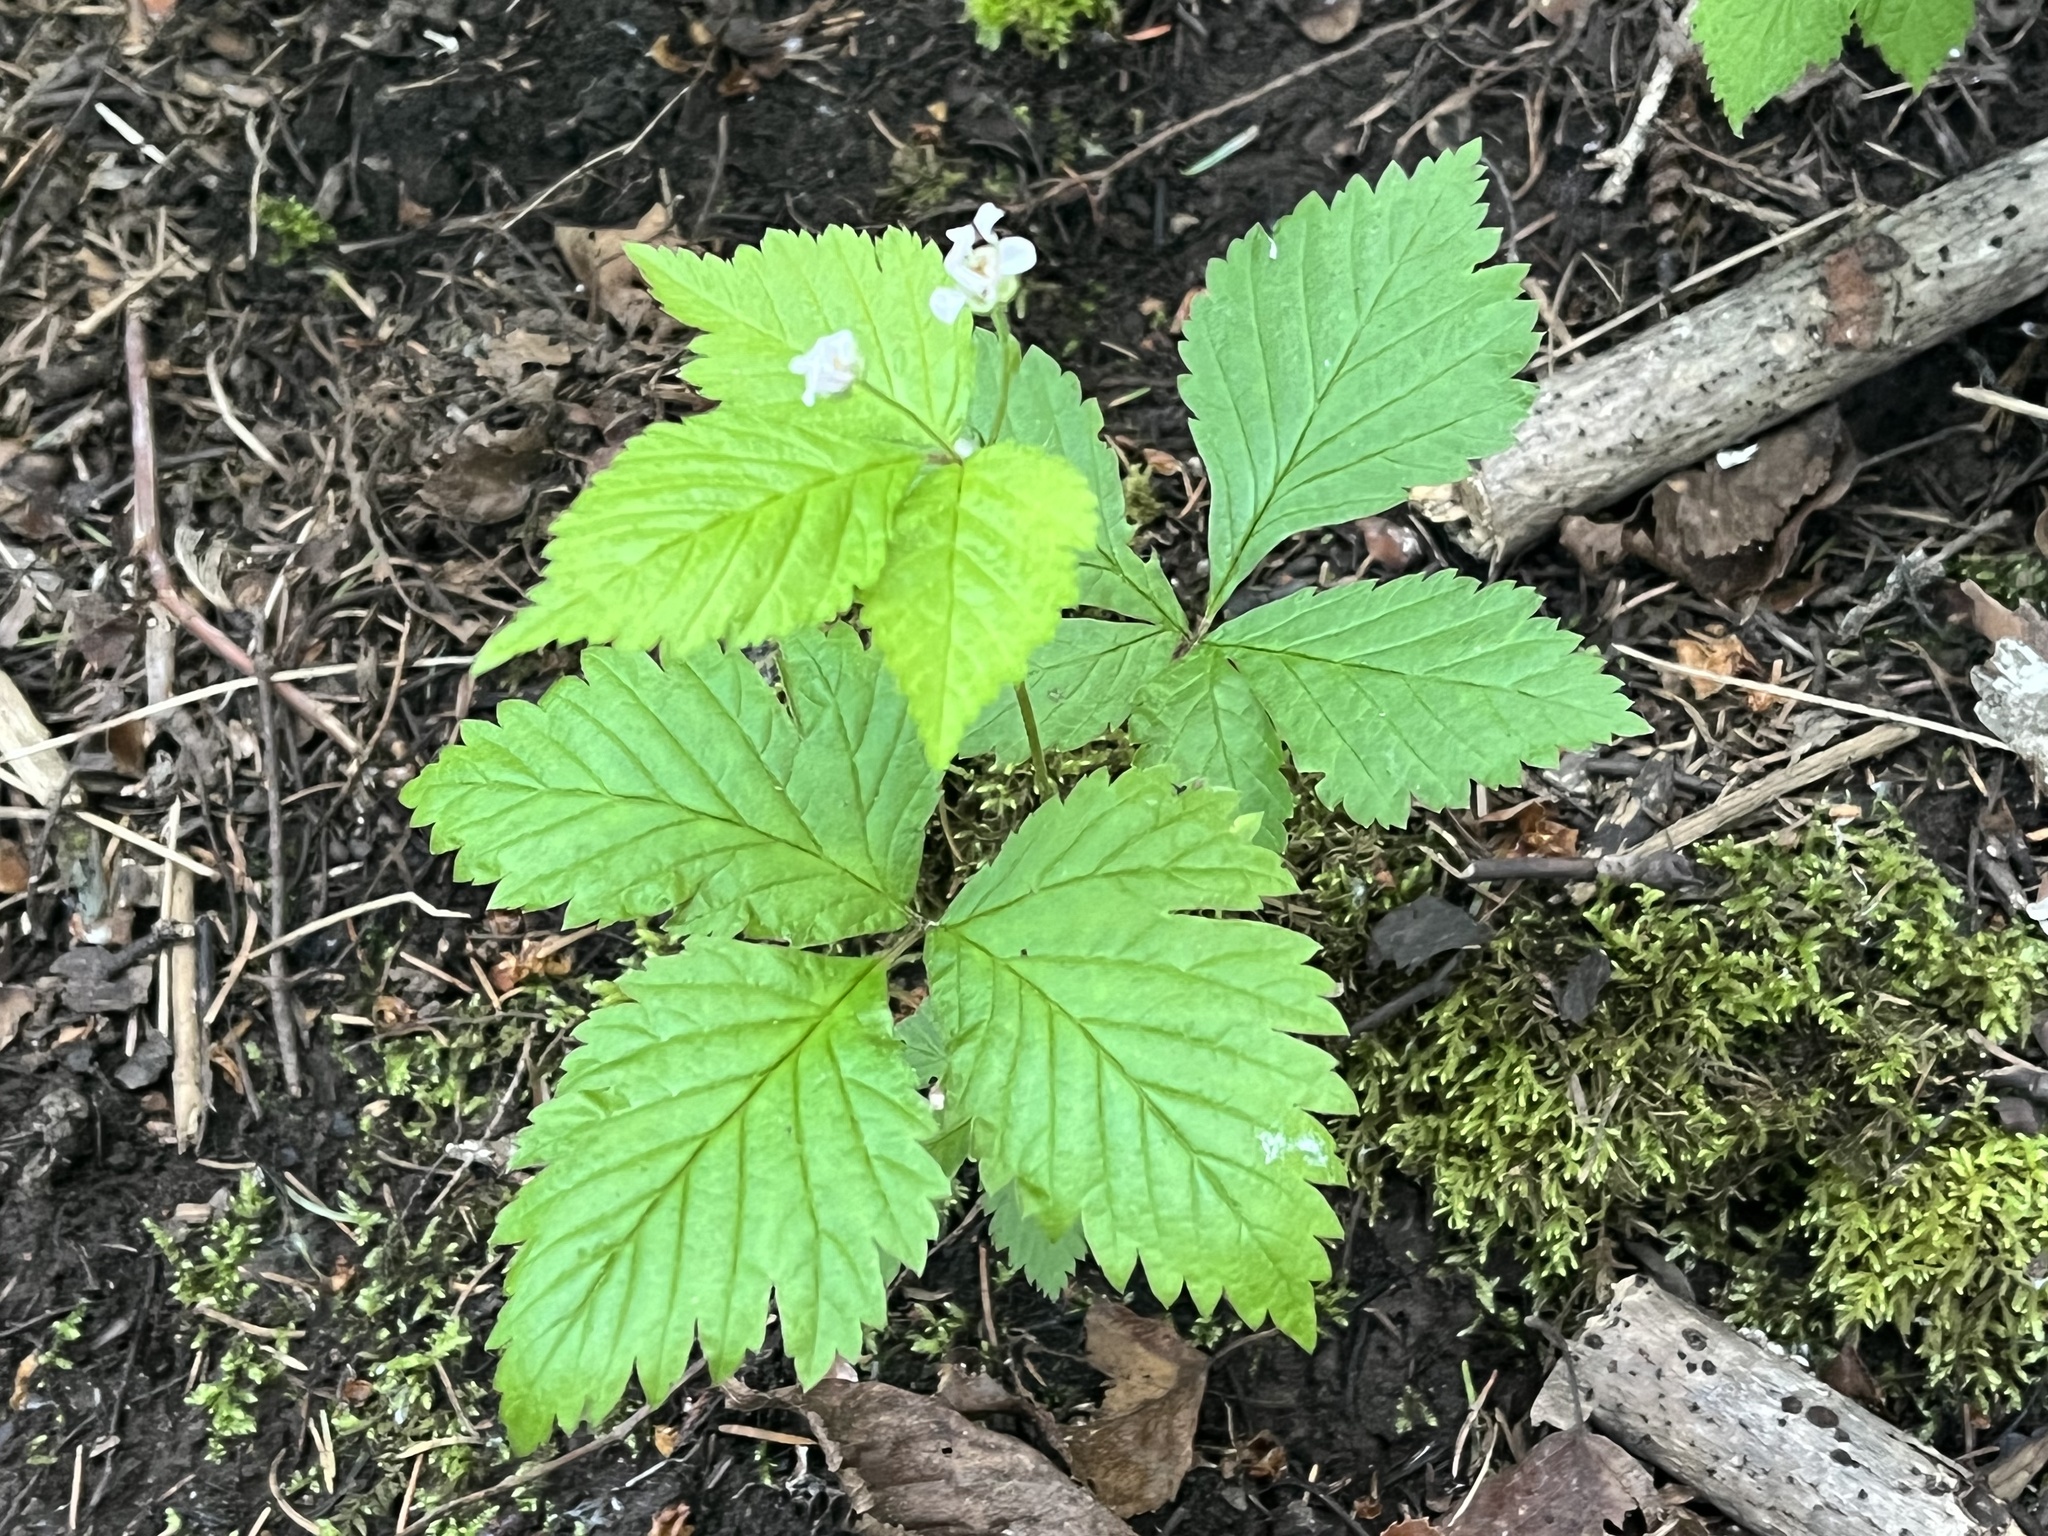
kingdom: Plantae
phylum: Tracheophyta
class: Magnoliopsida
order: Rosales
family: Rosaceae
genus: Rubus
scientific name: Rubus pubescens
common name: Dwarf raspberry
